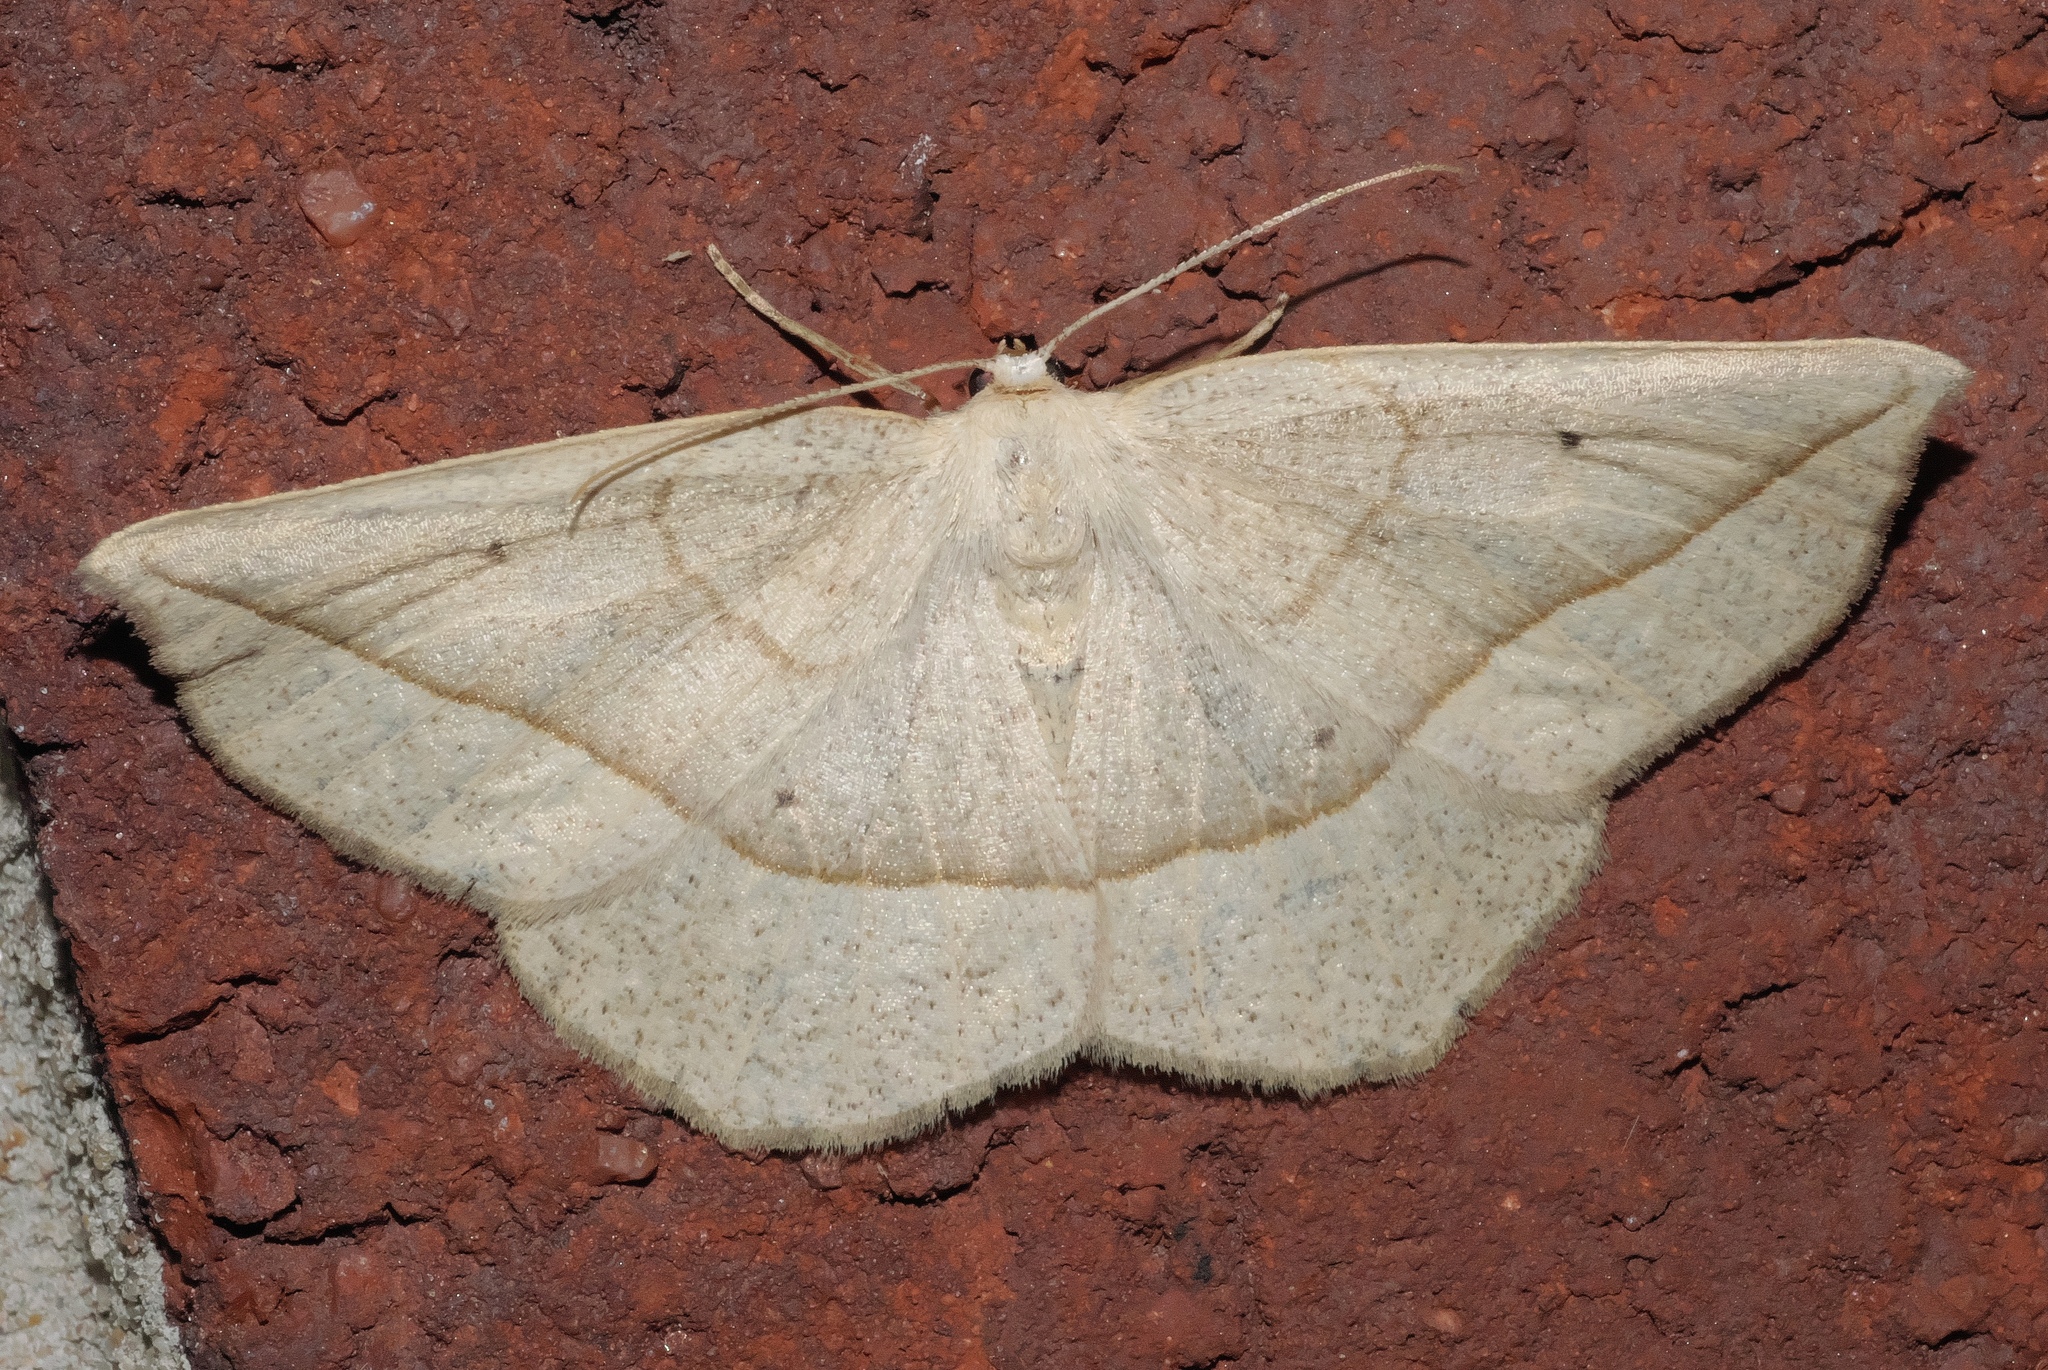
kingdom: Animalia
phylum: Arthropoda
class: Insecta
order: Lepidoptera
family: Geometridae
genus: Eusarca
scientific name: Eusarca confusaria
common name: Confused eusarca
